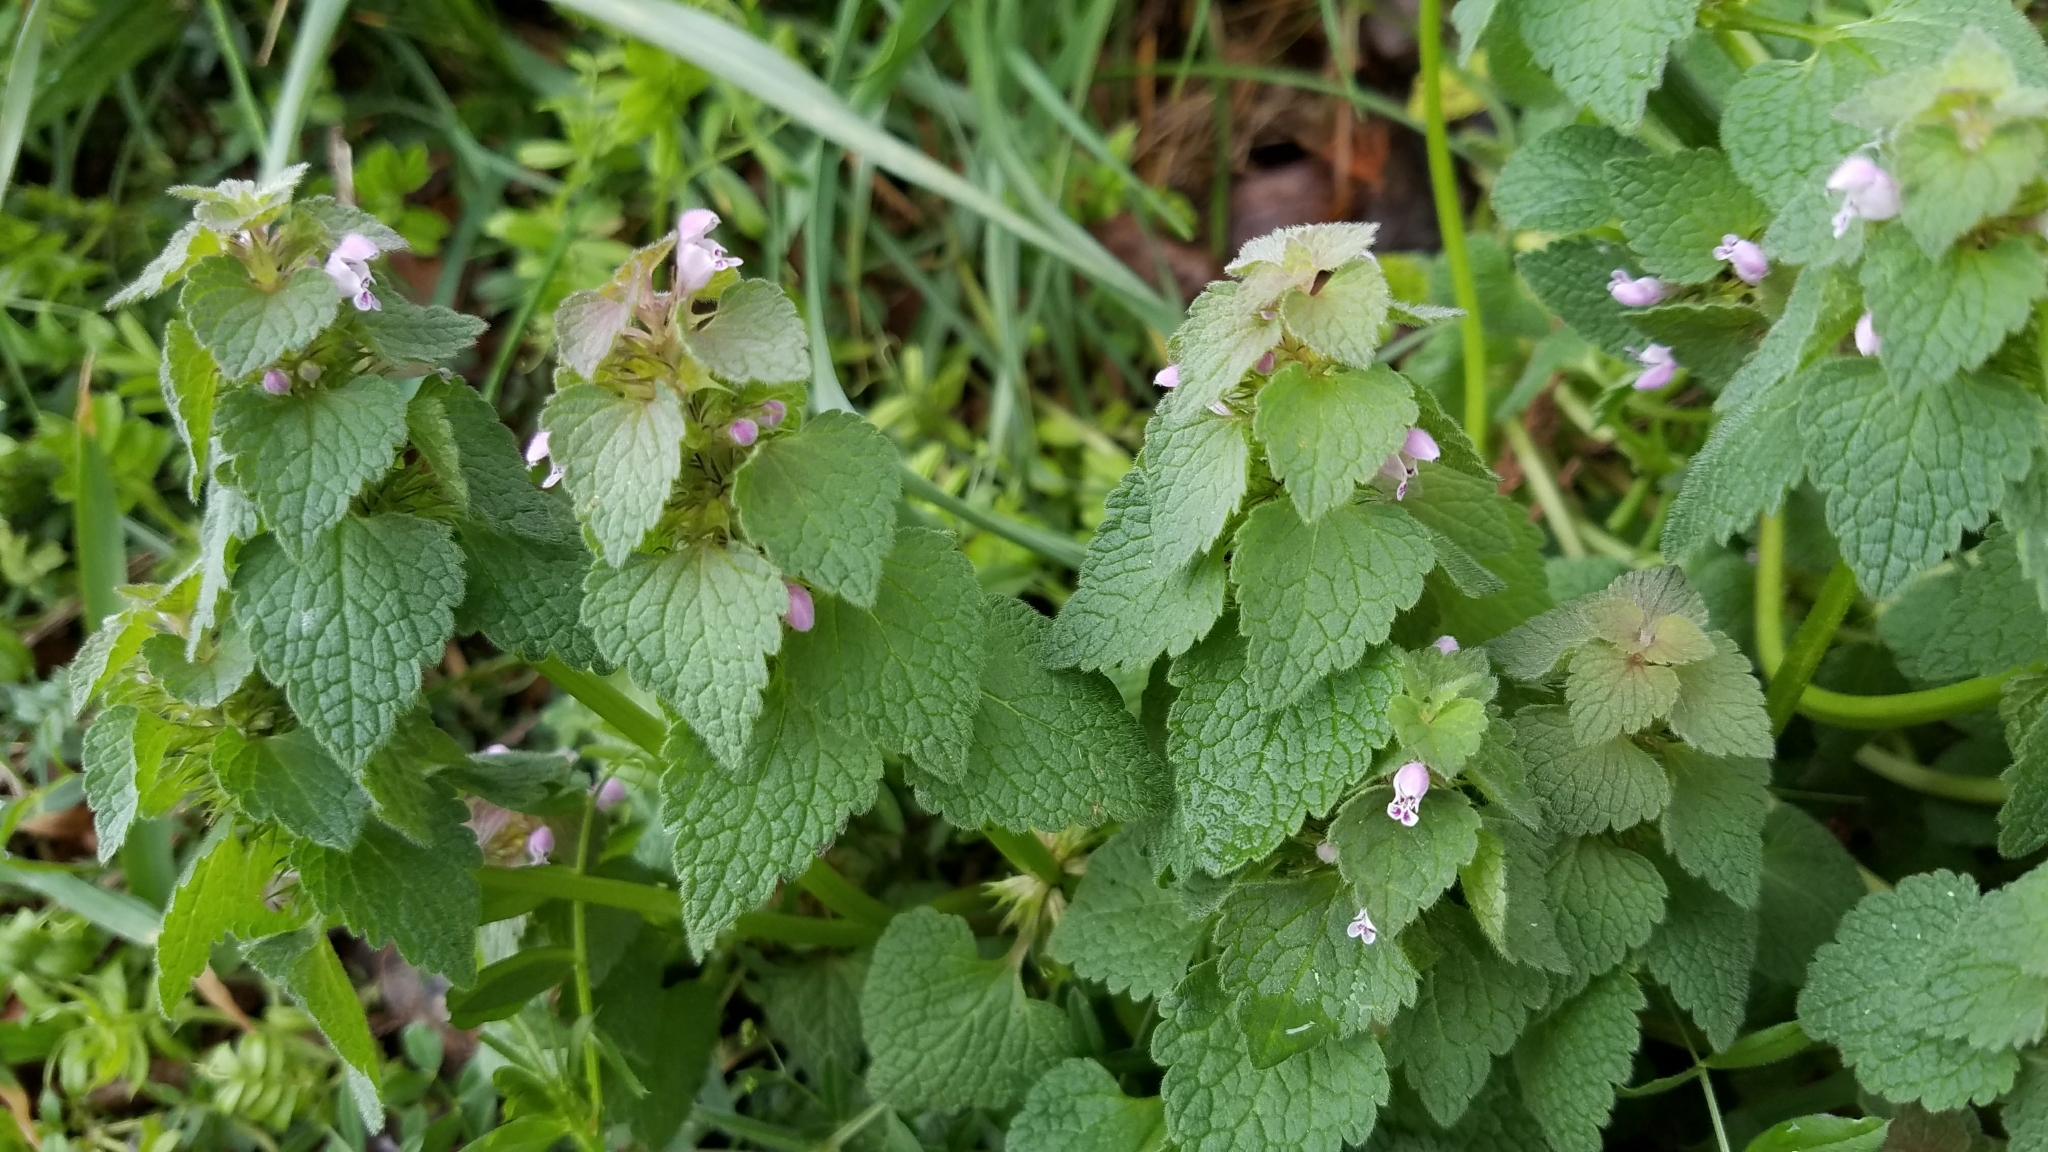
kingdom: Plantae
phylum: Tracheophyta
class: Magnoliopsida
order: Lamiales
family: Lamiaceae
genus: Lamium
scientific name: Lamium purpureum
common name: Red dead-nettle
